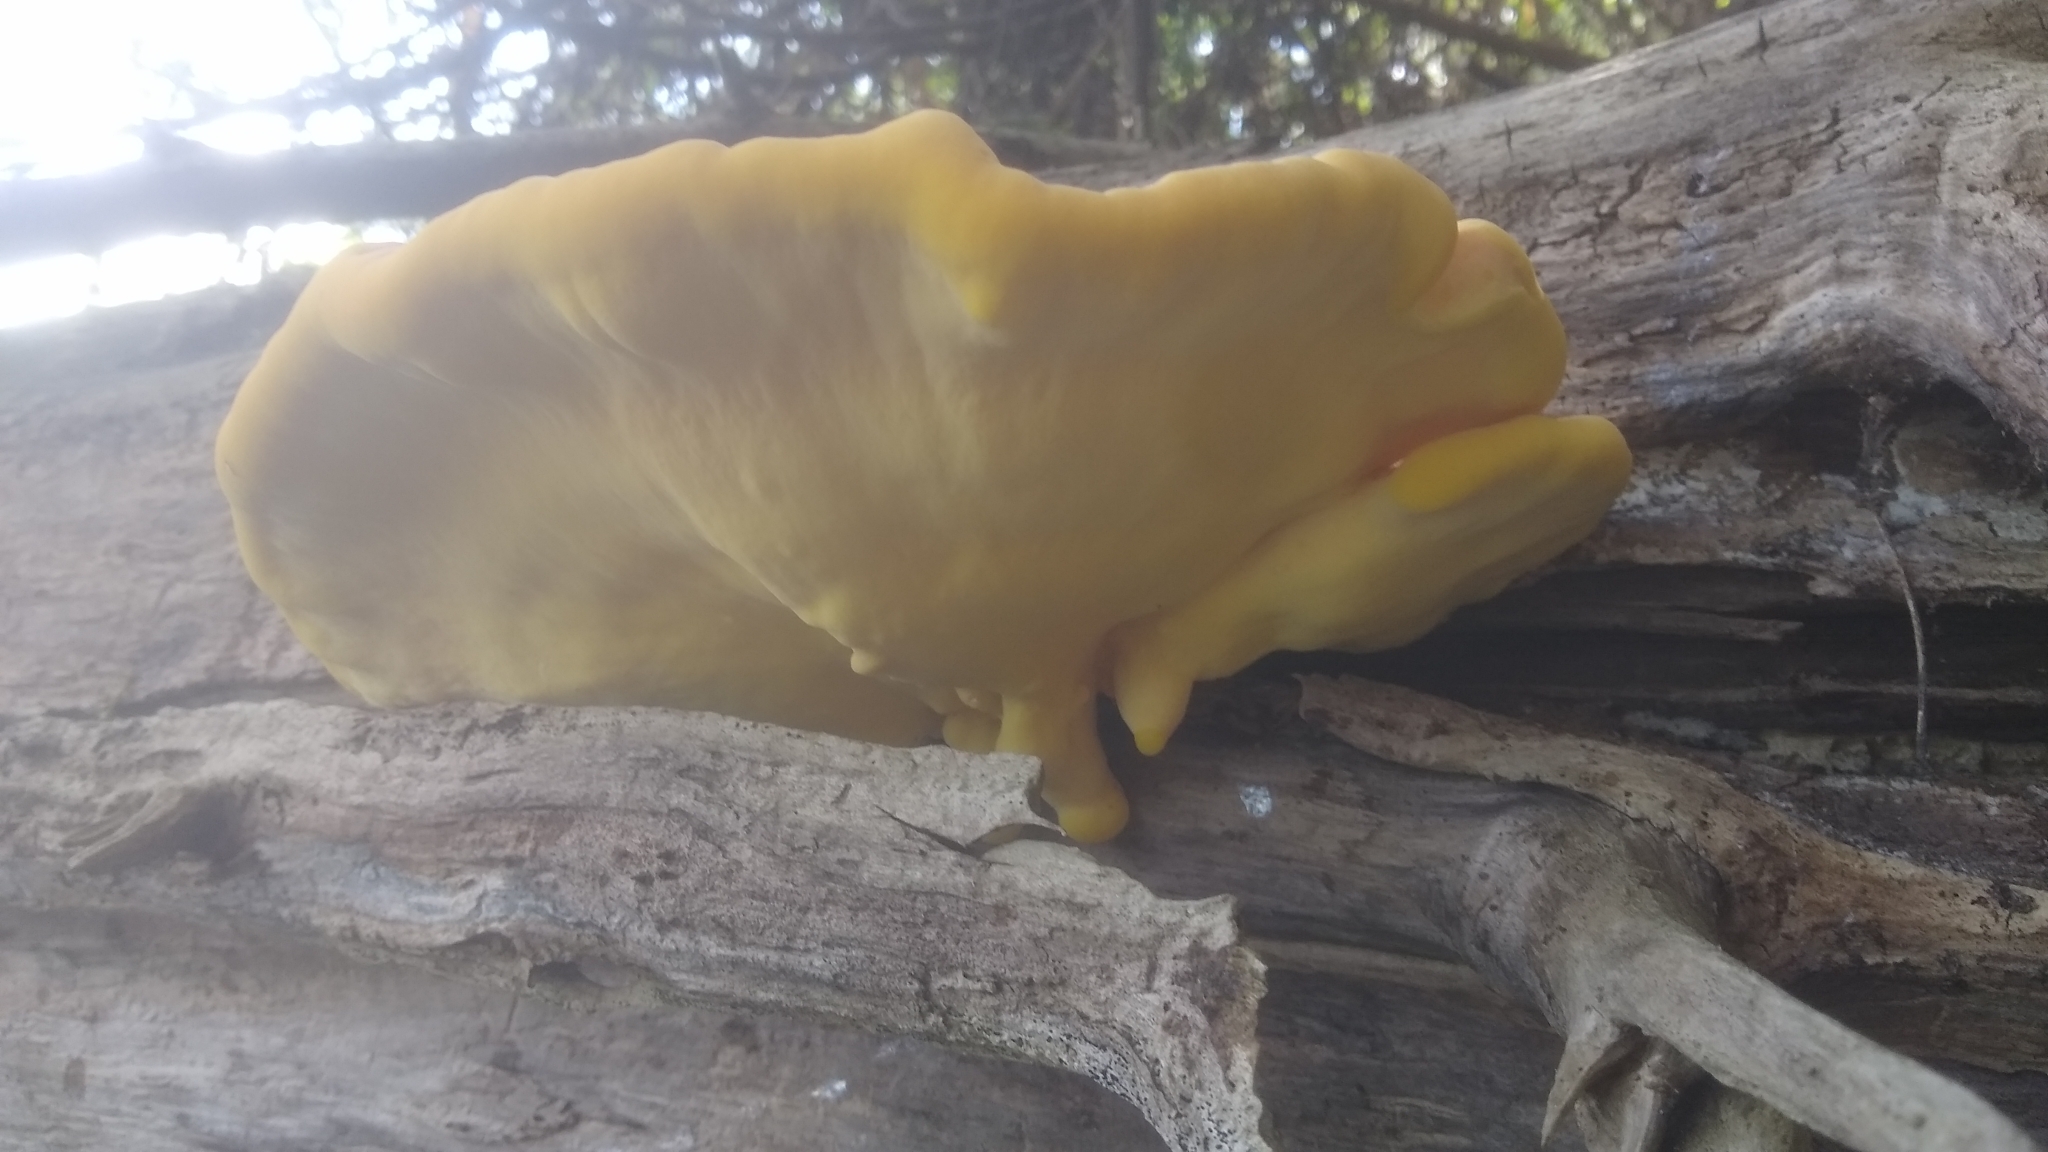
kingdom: Fungi
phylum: Basidiomycota
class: Agaricomycetes
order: Polyporales
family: Laetiporaceae
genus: Laetiporus
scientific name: Laetiporus sulphureus
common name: Chicken of the woods
